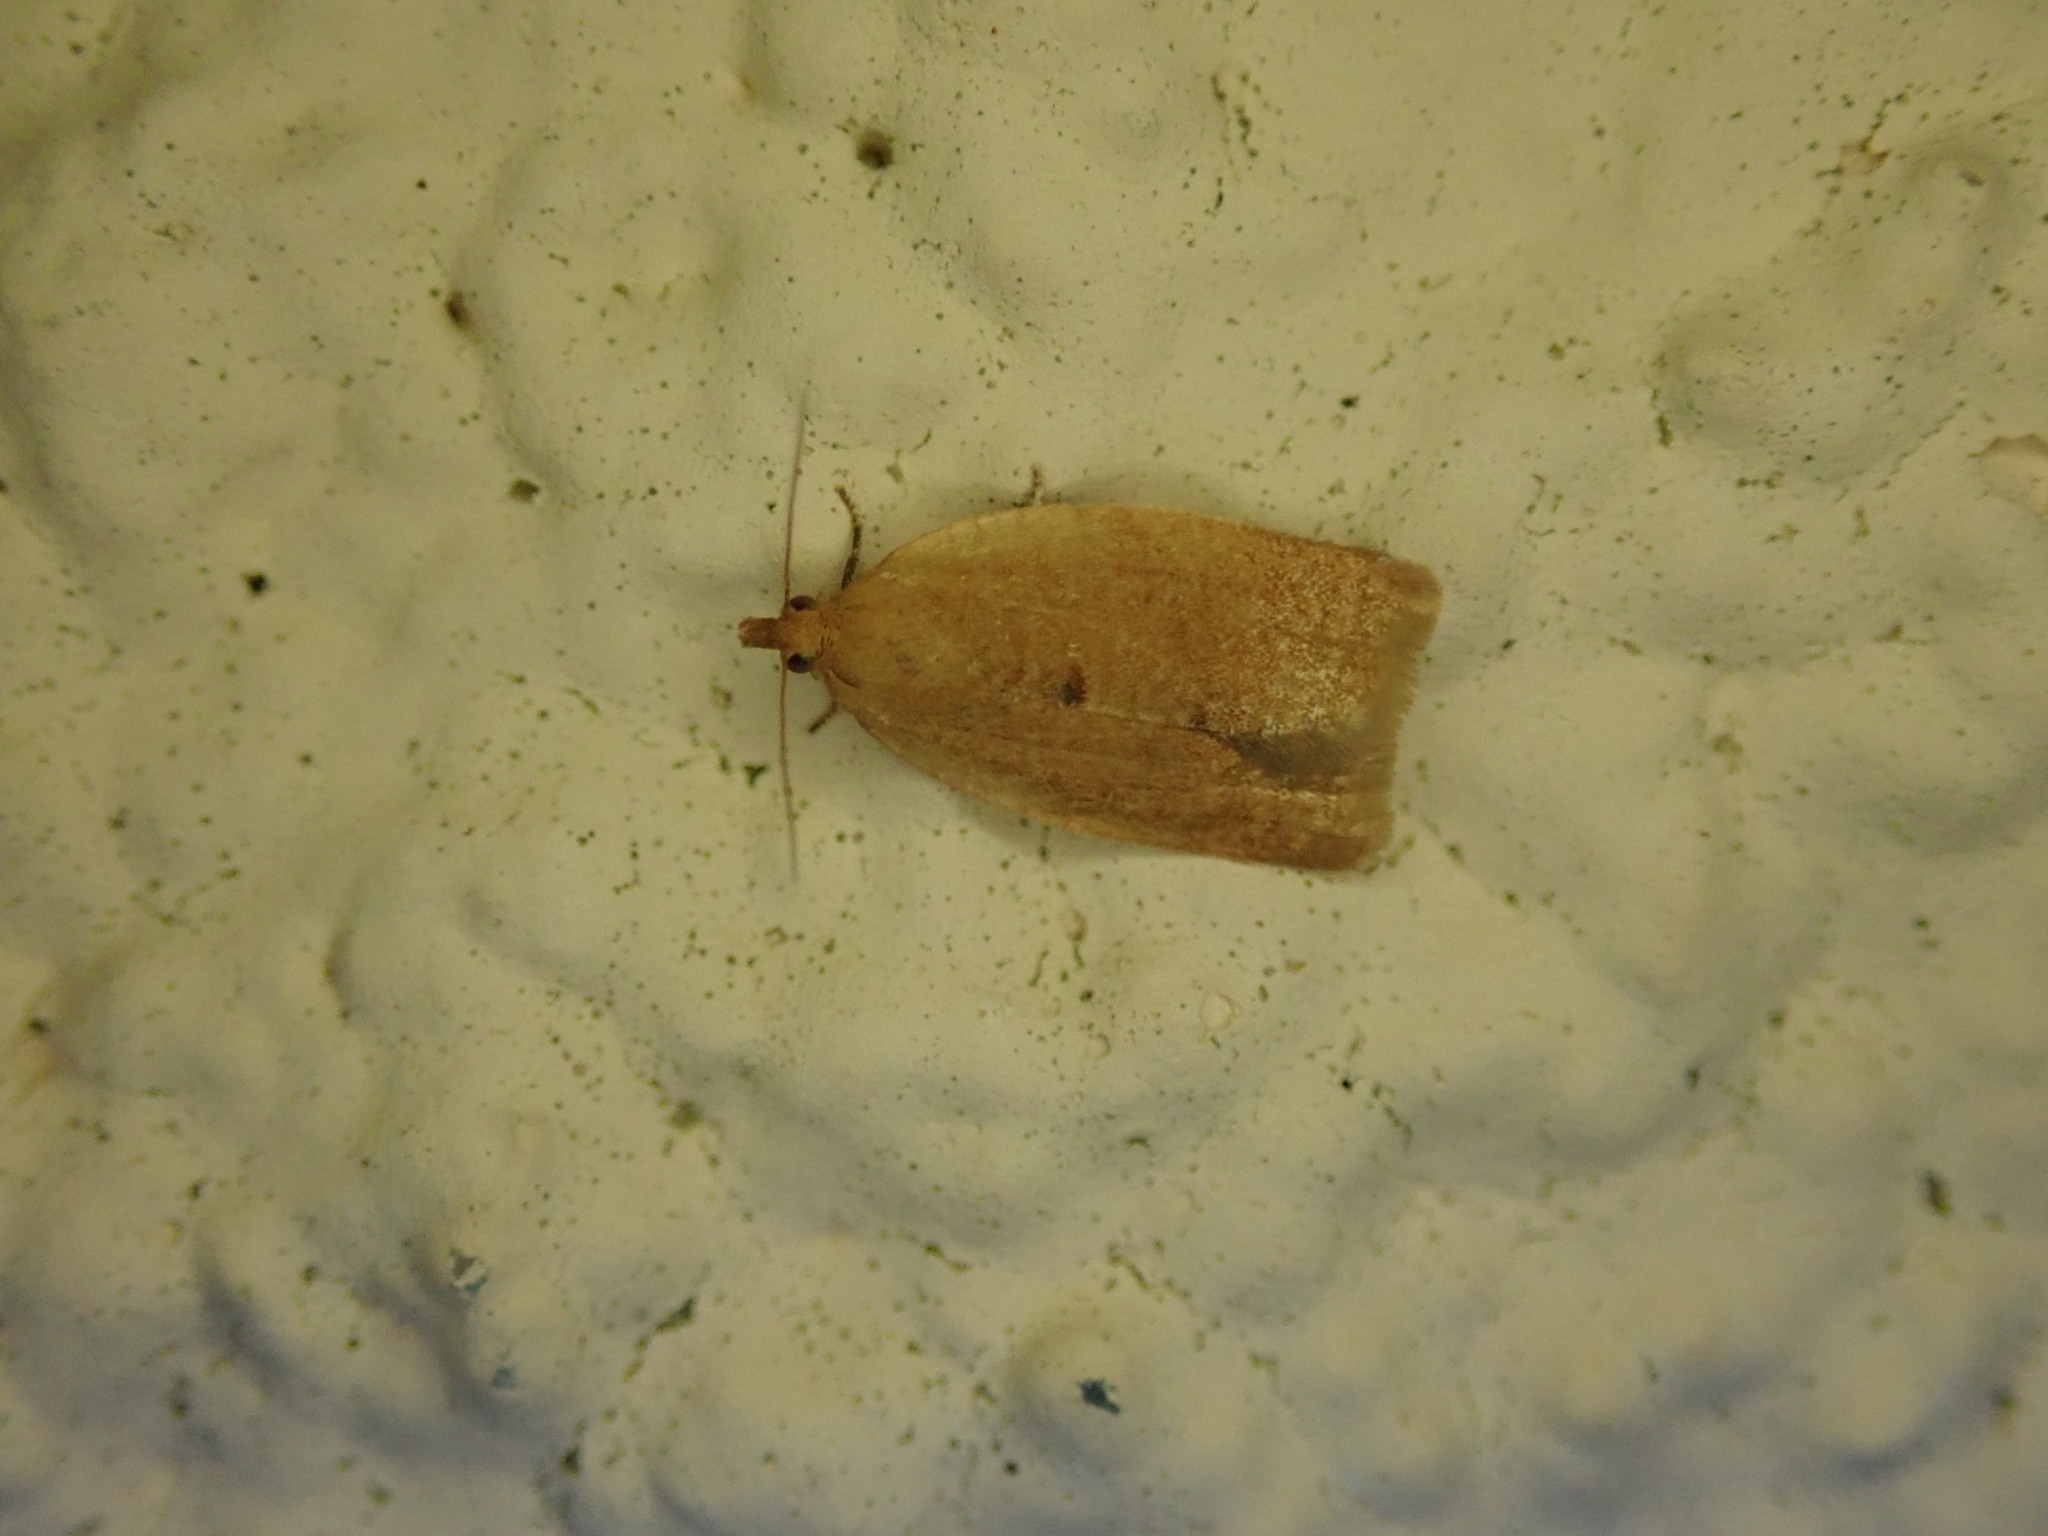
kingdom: Animalia
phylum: Arthropoda
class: Insecta
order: Lepidoptera
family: Tortricidae
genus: Clepsis
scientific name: Clepsis consimilana
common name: Privet tortrix
